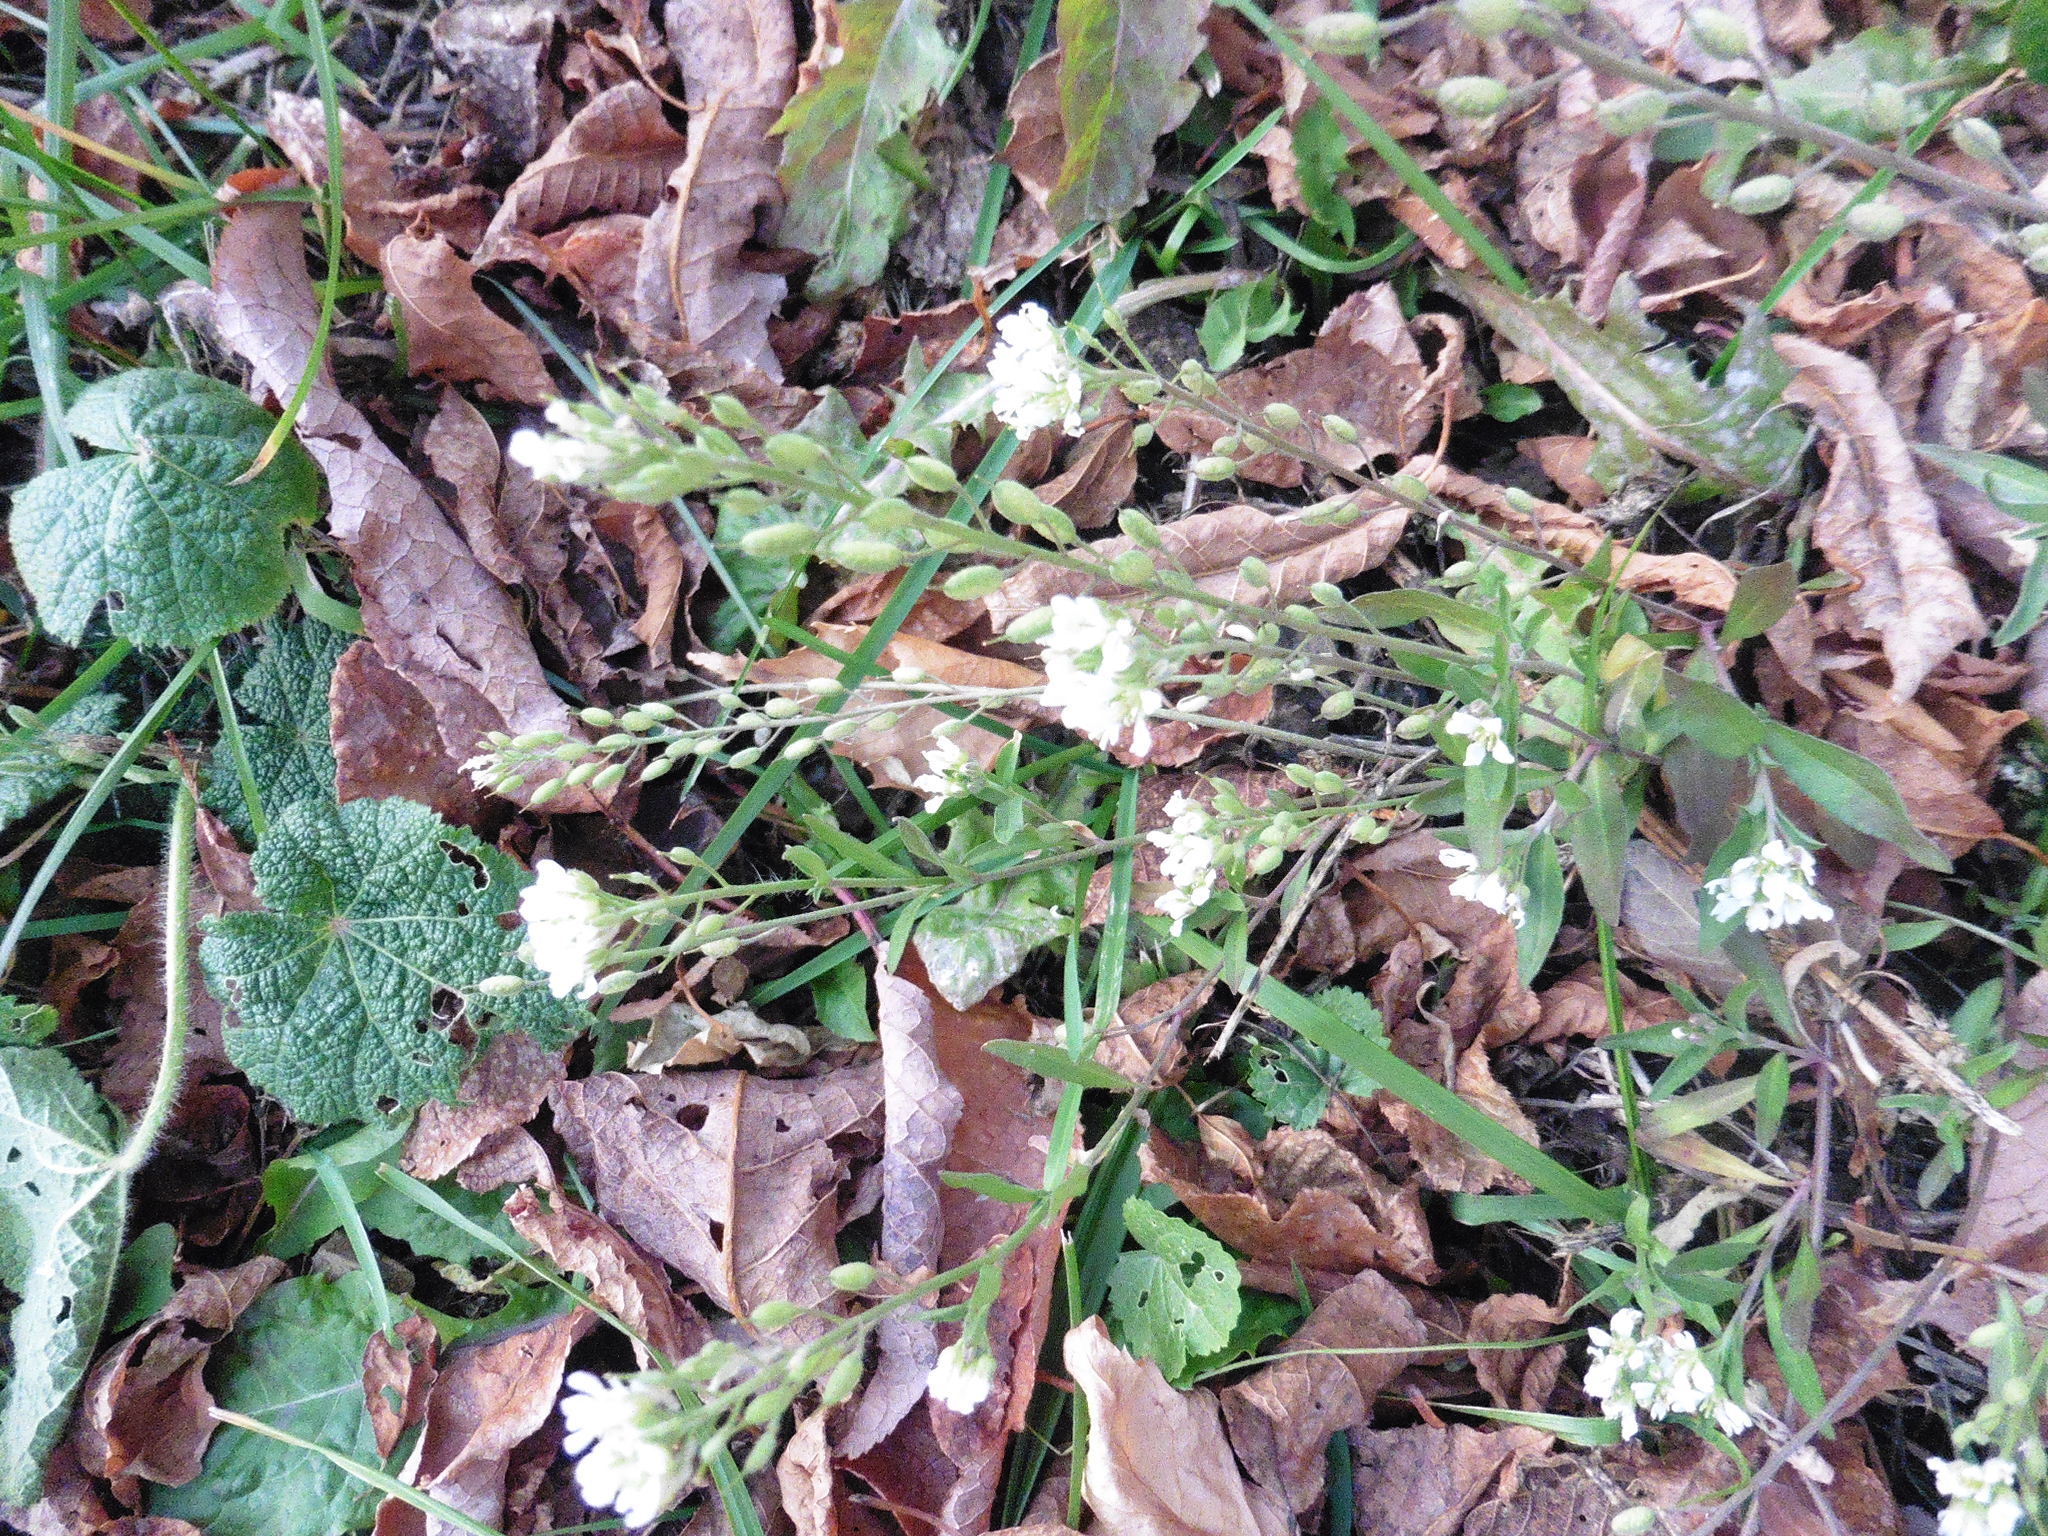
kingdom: Plantae
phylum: Tracheophyta
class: Magnoliopsida
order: Brassicales
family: Brassicaceae
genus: Berteroa
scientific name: Berteroa incana
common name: Hoary alison
